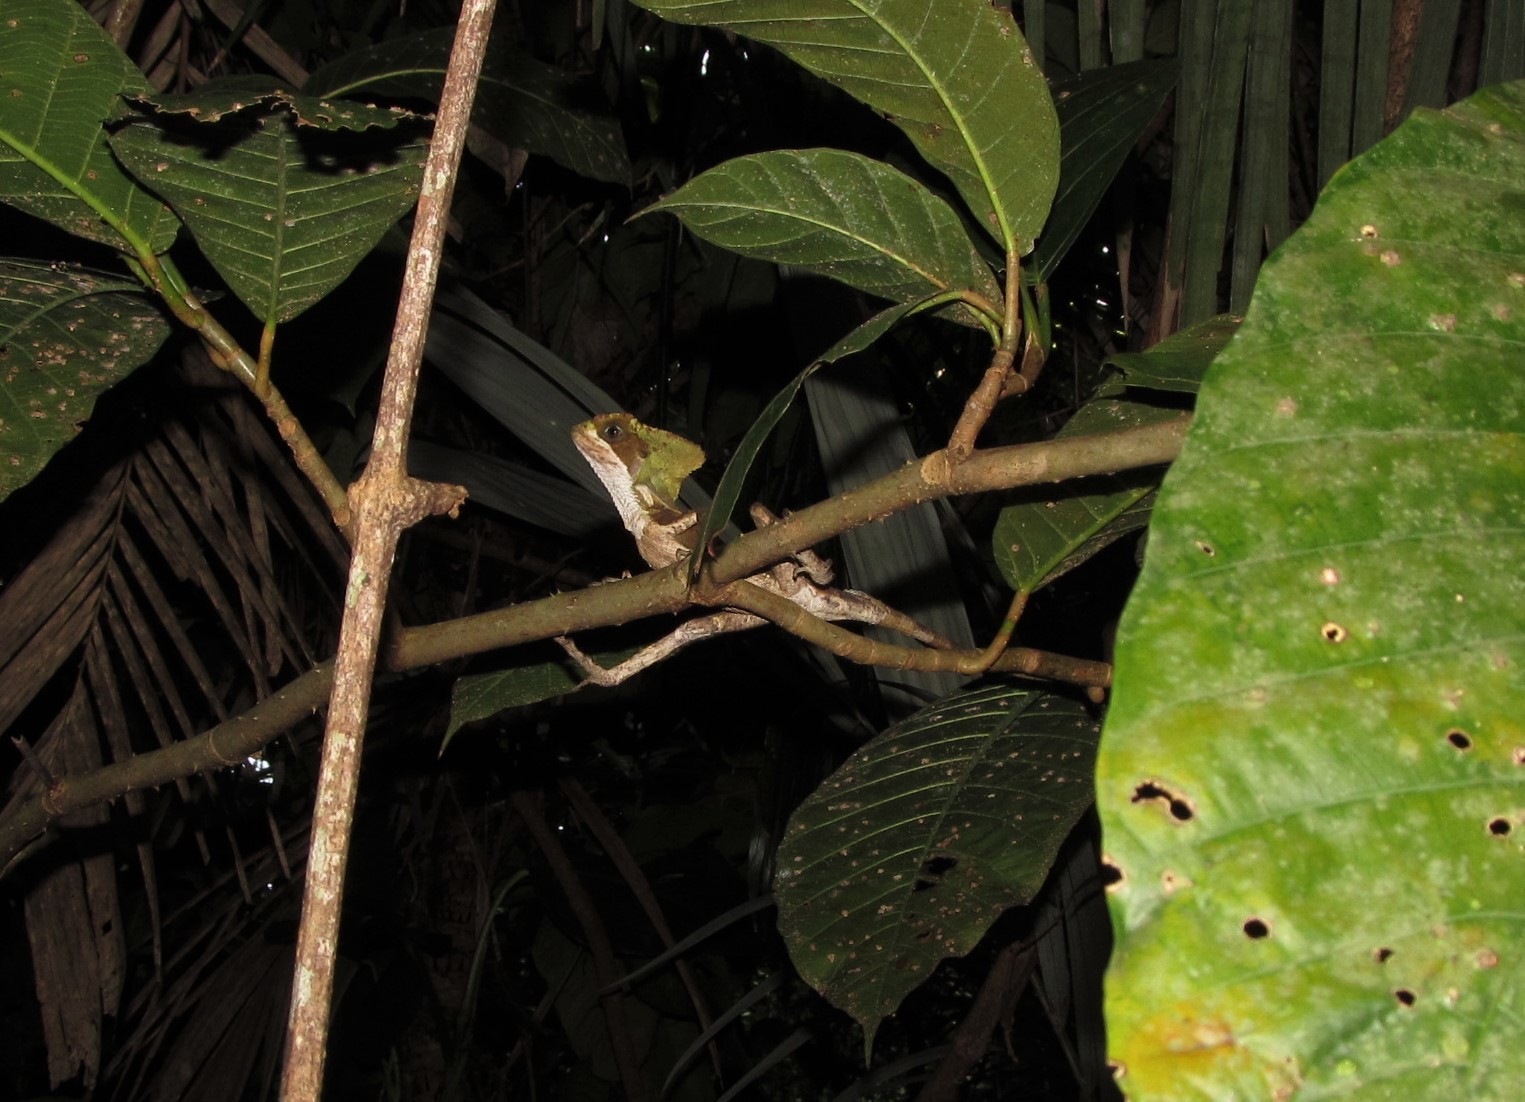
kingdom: Animalia
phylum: Chordata
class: Squamata
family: Corytophanidae
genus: Corytophanes
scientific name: Corytophanes hernandesii
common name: Hernandez’s helmeted basilisk
